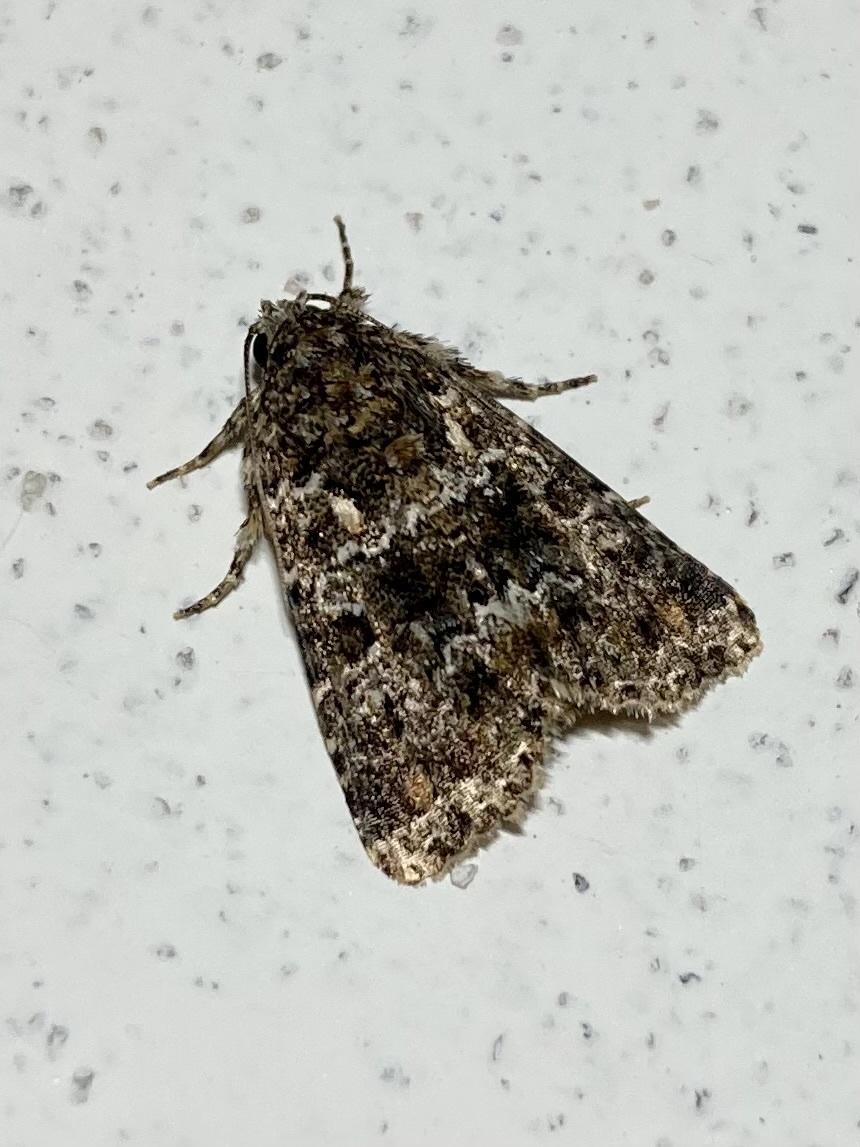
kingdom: Animalia
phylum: Arthropoda
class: Insecta
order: Lepidoptera
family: Noctuidae
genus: Callopistria
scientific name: Callopistria latreillei
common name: Latreille's latin
